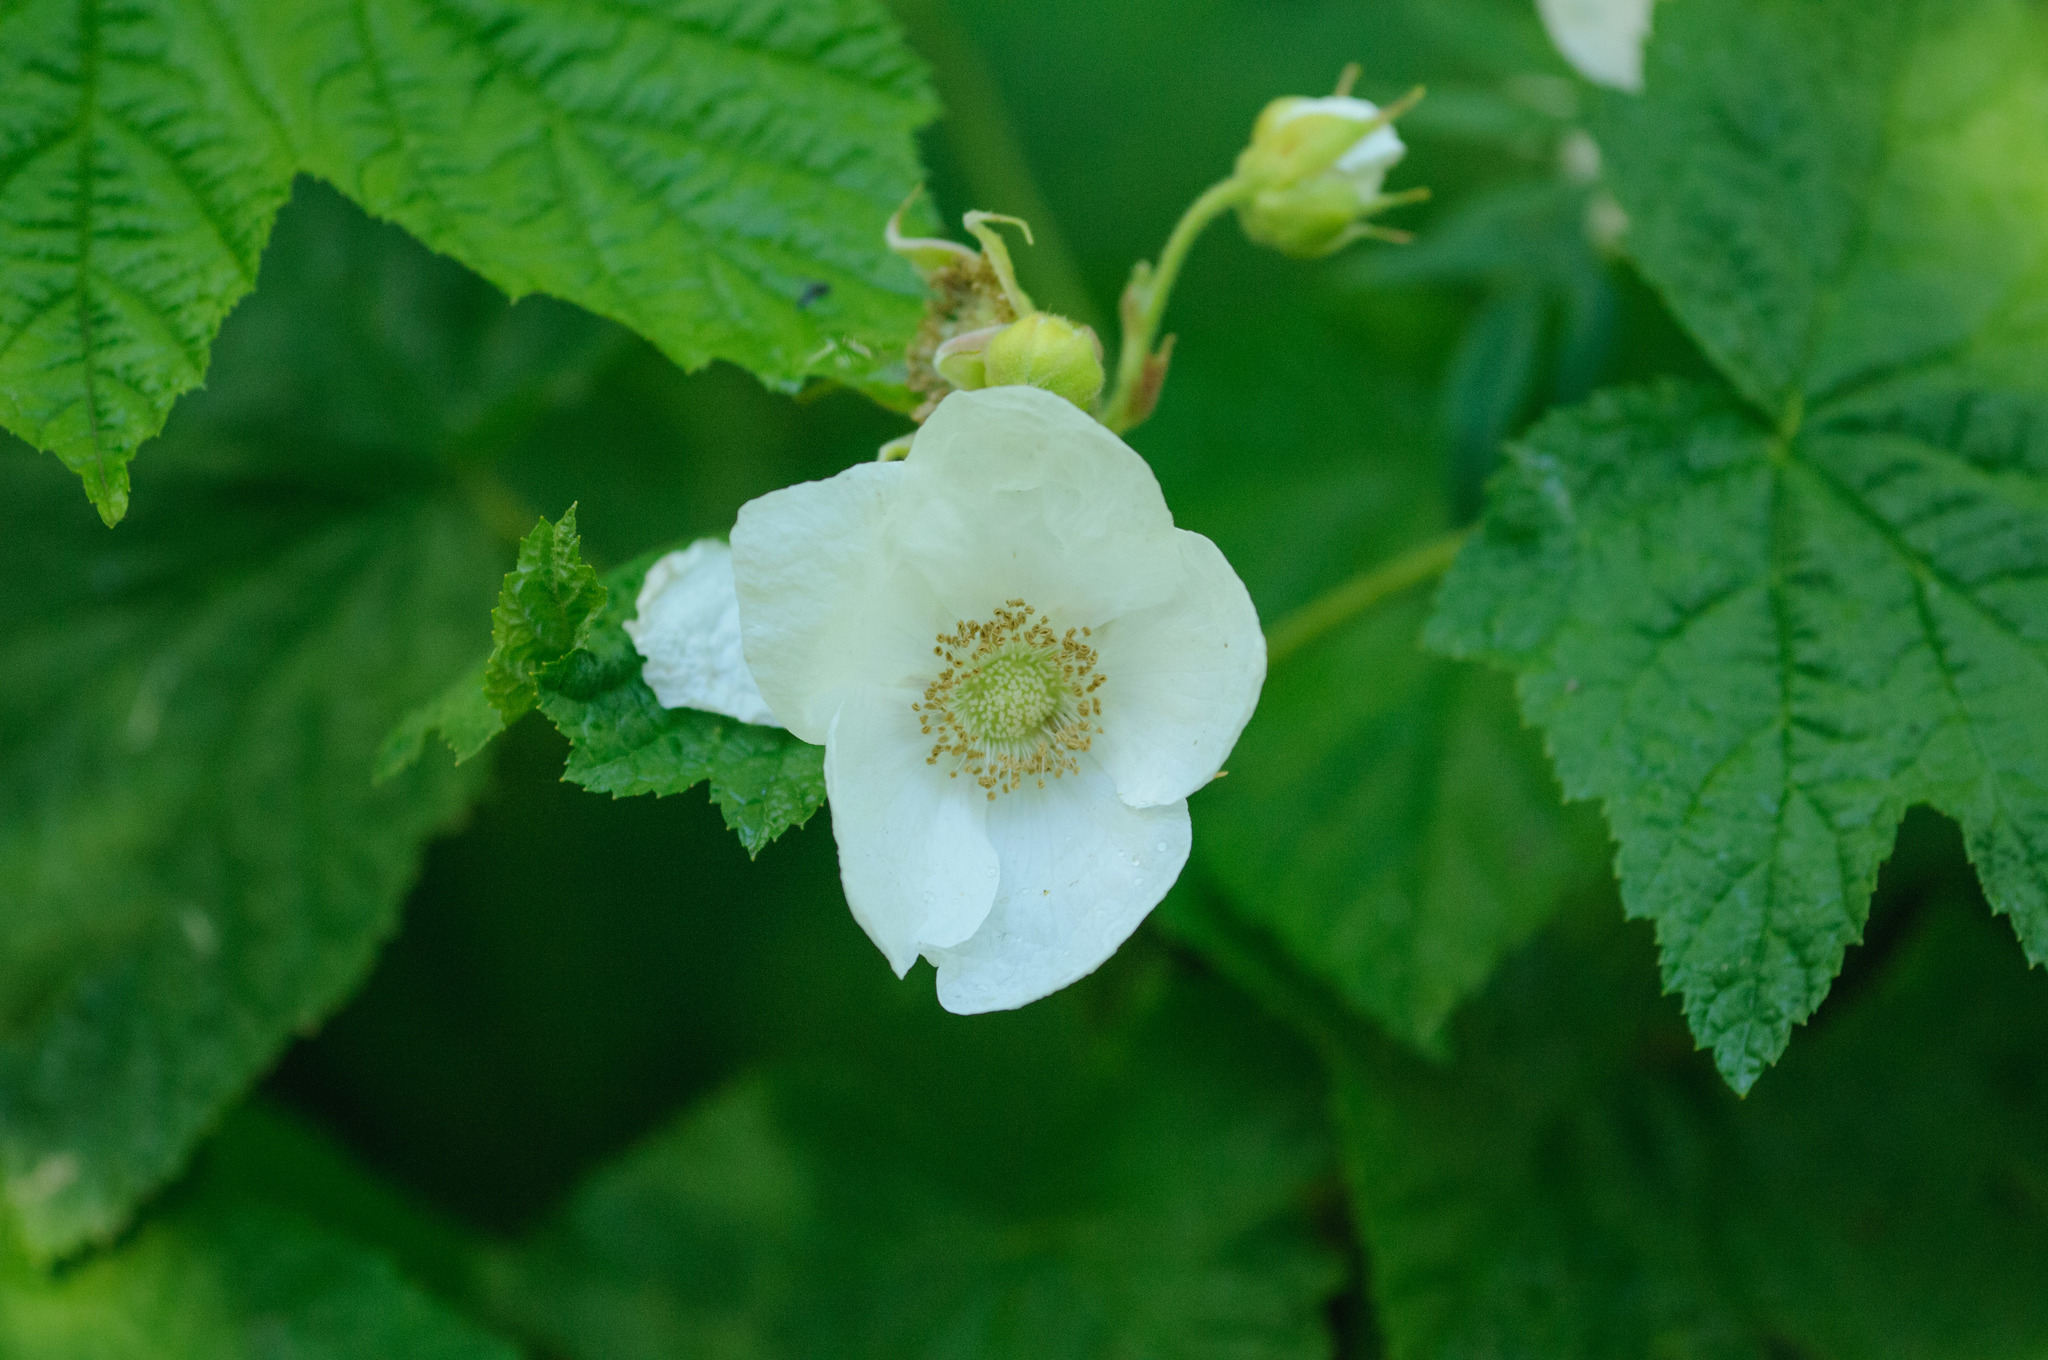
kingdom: Plantae
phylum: Tracheophyta
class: Magnoliopsida
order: Rosales
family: Rosaceae
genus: Rubus
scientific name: Rubus parviflorus
